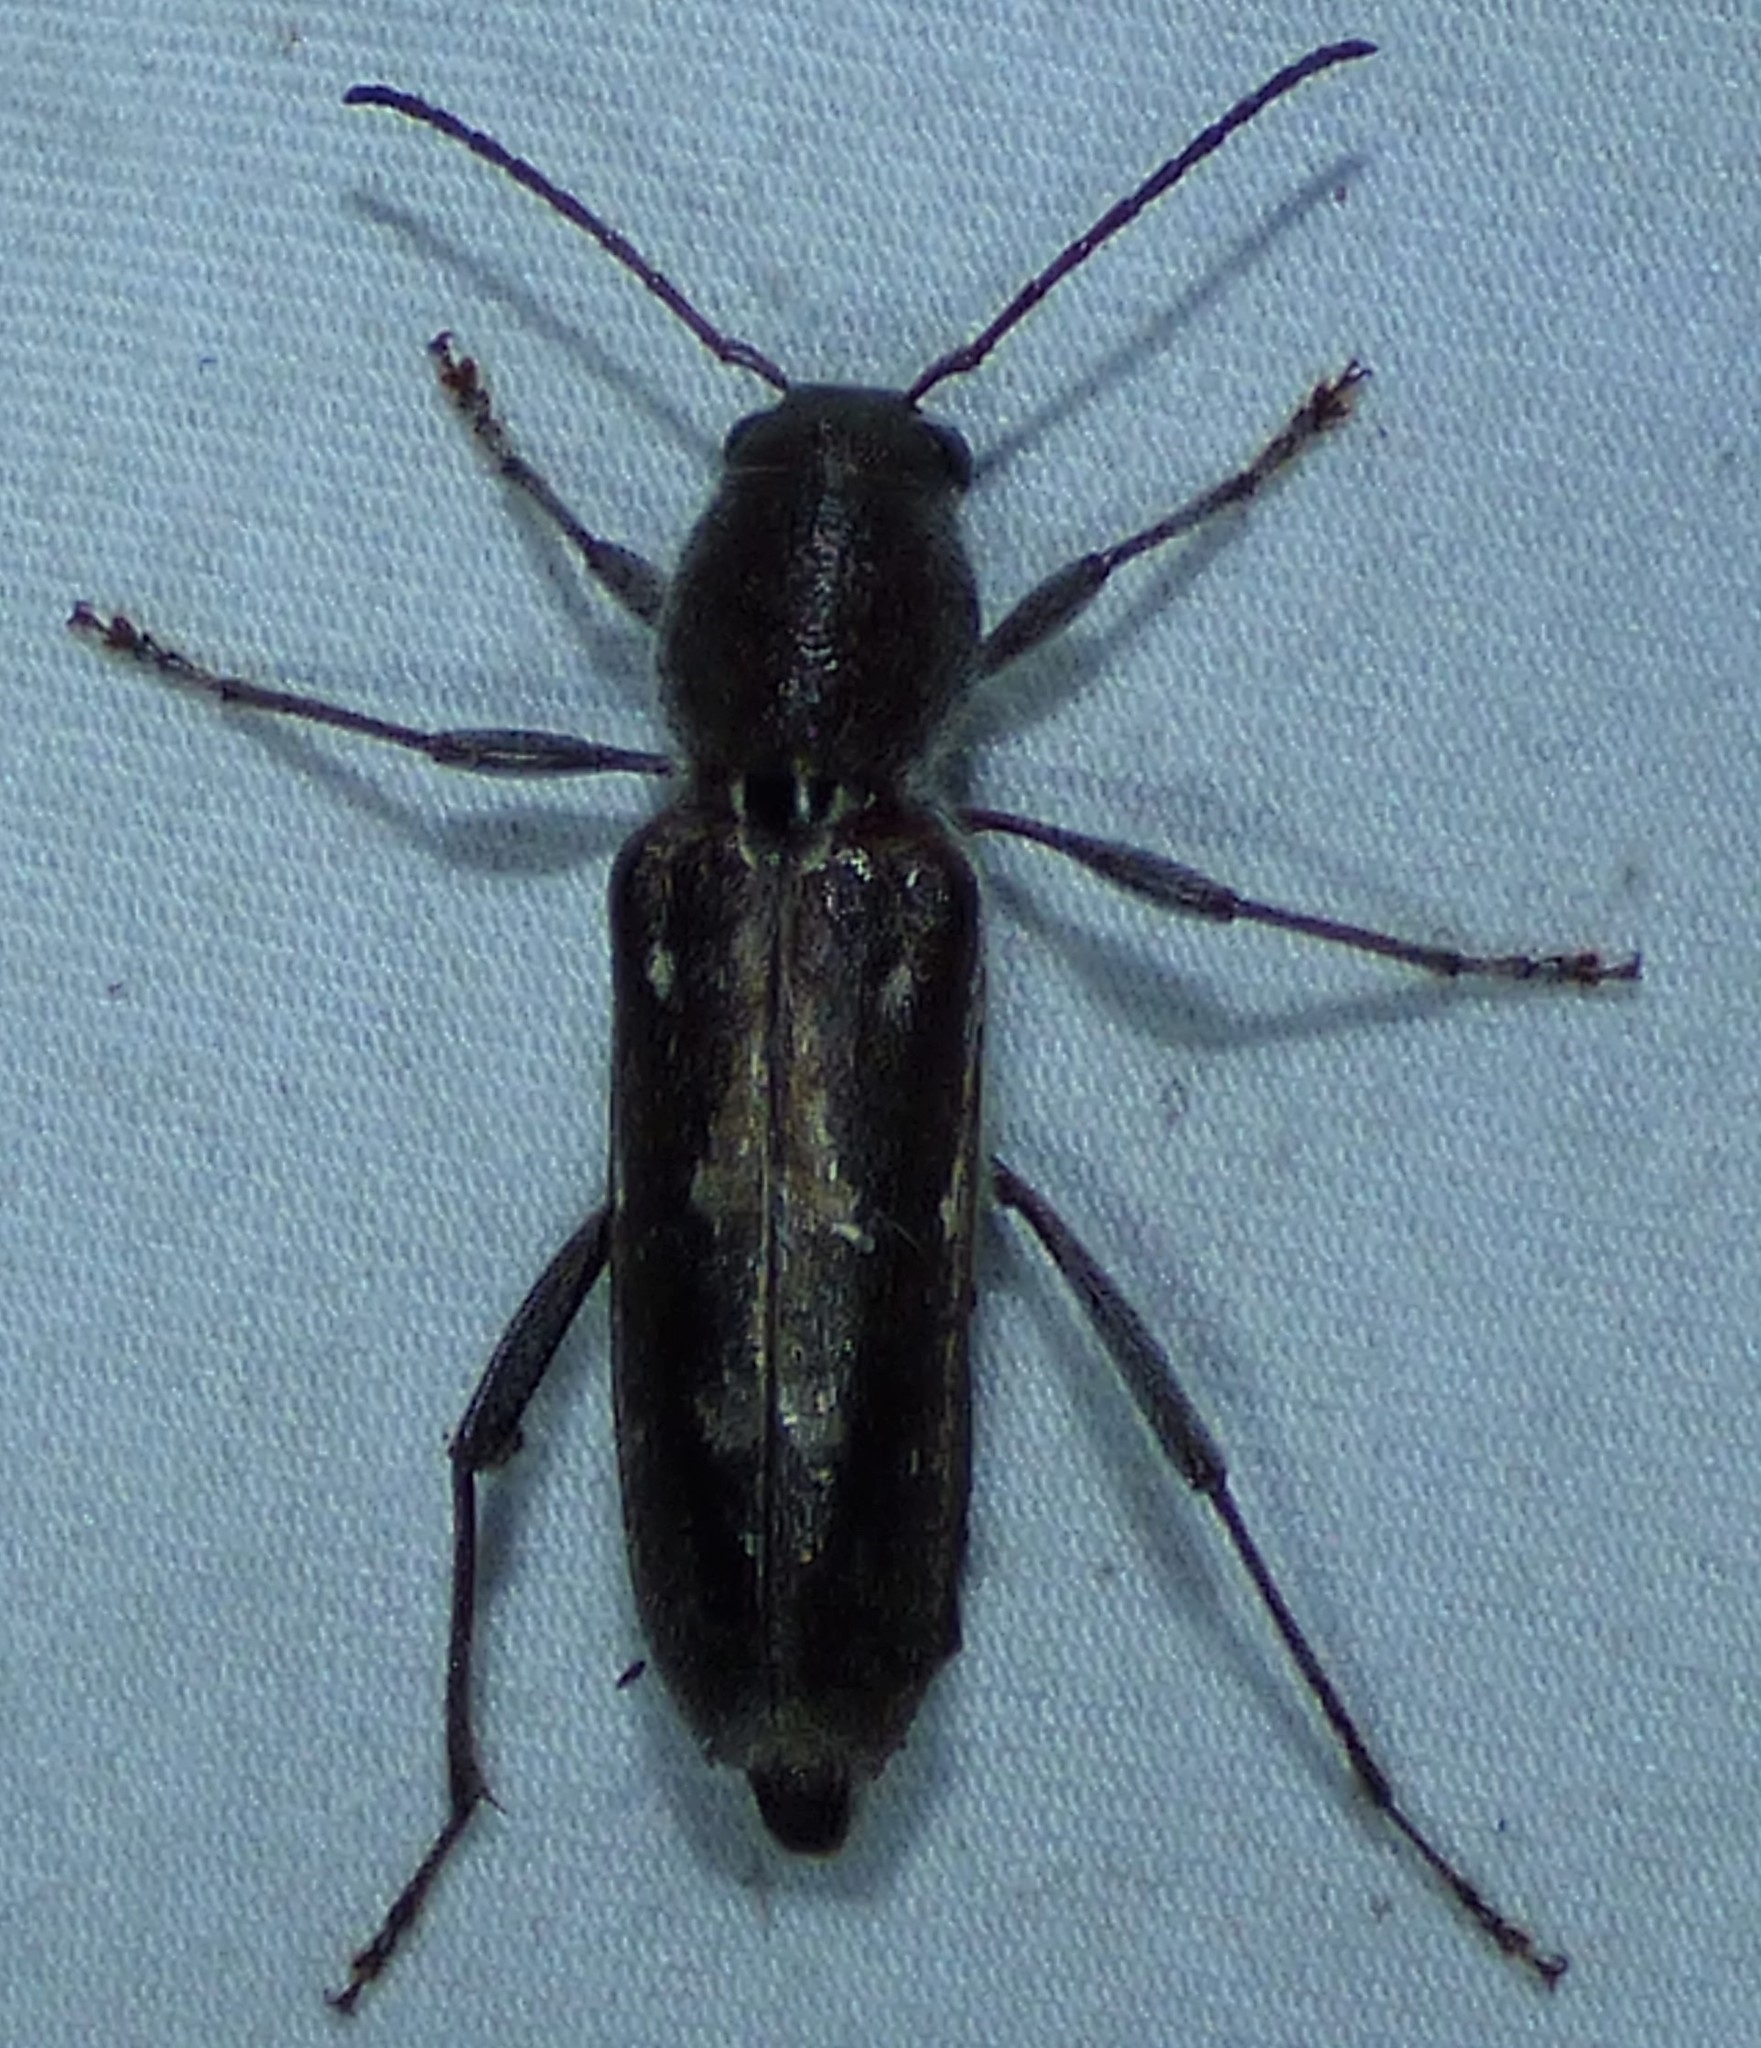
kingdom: Animalia
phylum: Arthropoda
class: Insecta
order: Coleoptera
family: Cerambycidae
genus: Xylotrechus
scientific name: Xylotrechus sagittatus
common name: Arrowhead borer
